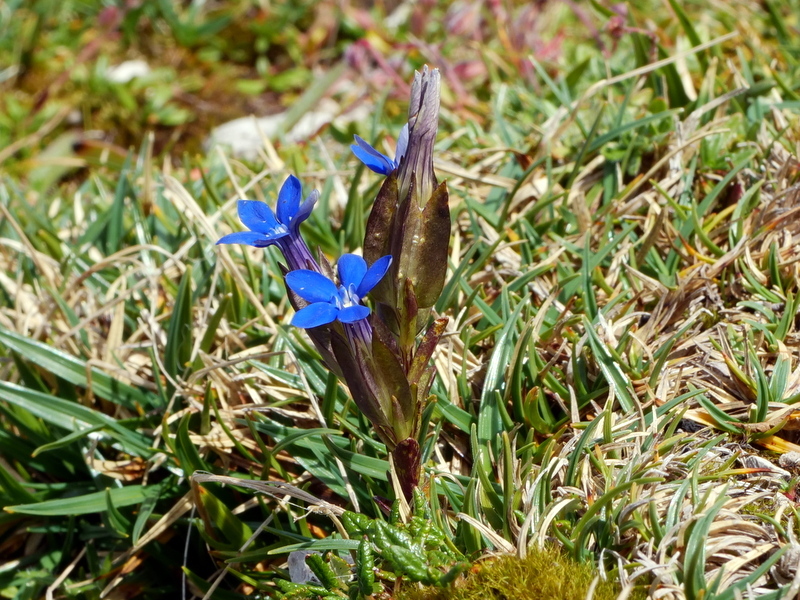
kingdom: Plantae
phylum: Tracheophyta
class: Magnoliopsida
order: Gentianales
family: Gentianaceae
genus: Gentiana
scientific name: Gentiana utriculosa
